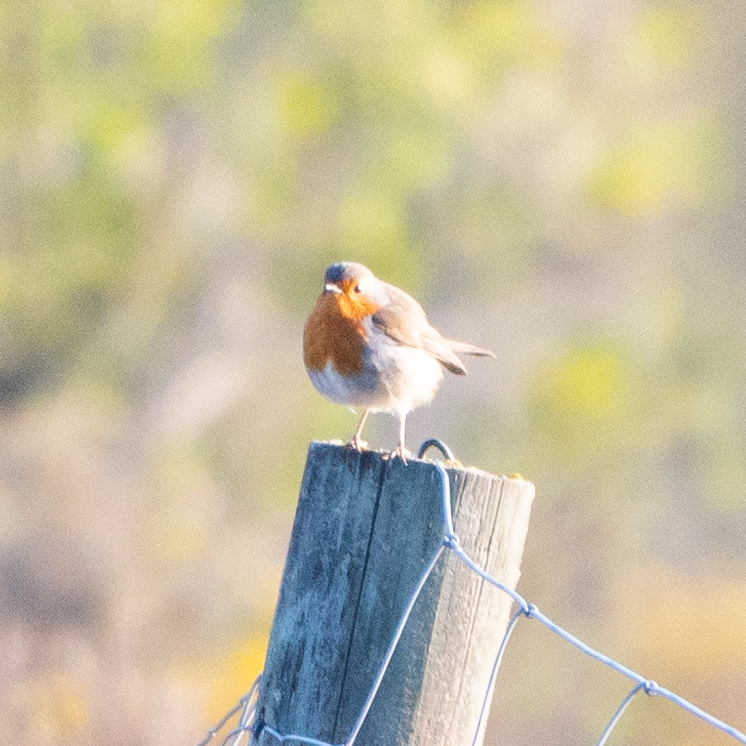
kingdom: Animalia
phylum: Chordata
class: Aves
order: Passeriformes
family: Muscicapidae
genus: Erithacus
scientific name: Erithacus rubecula
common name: European robin
